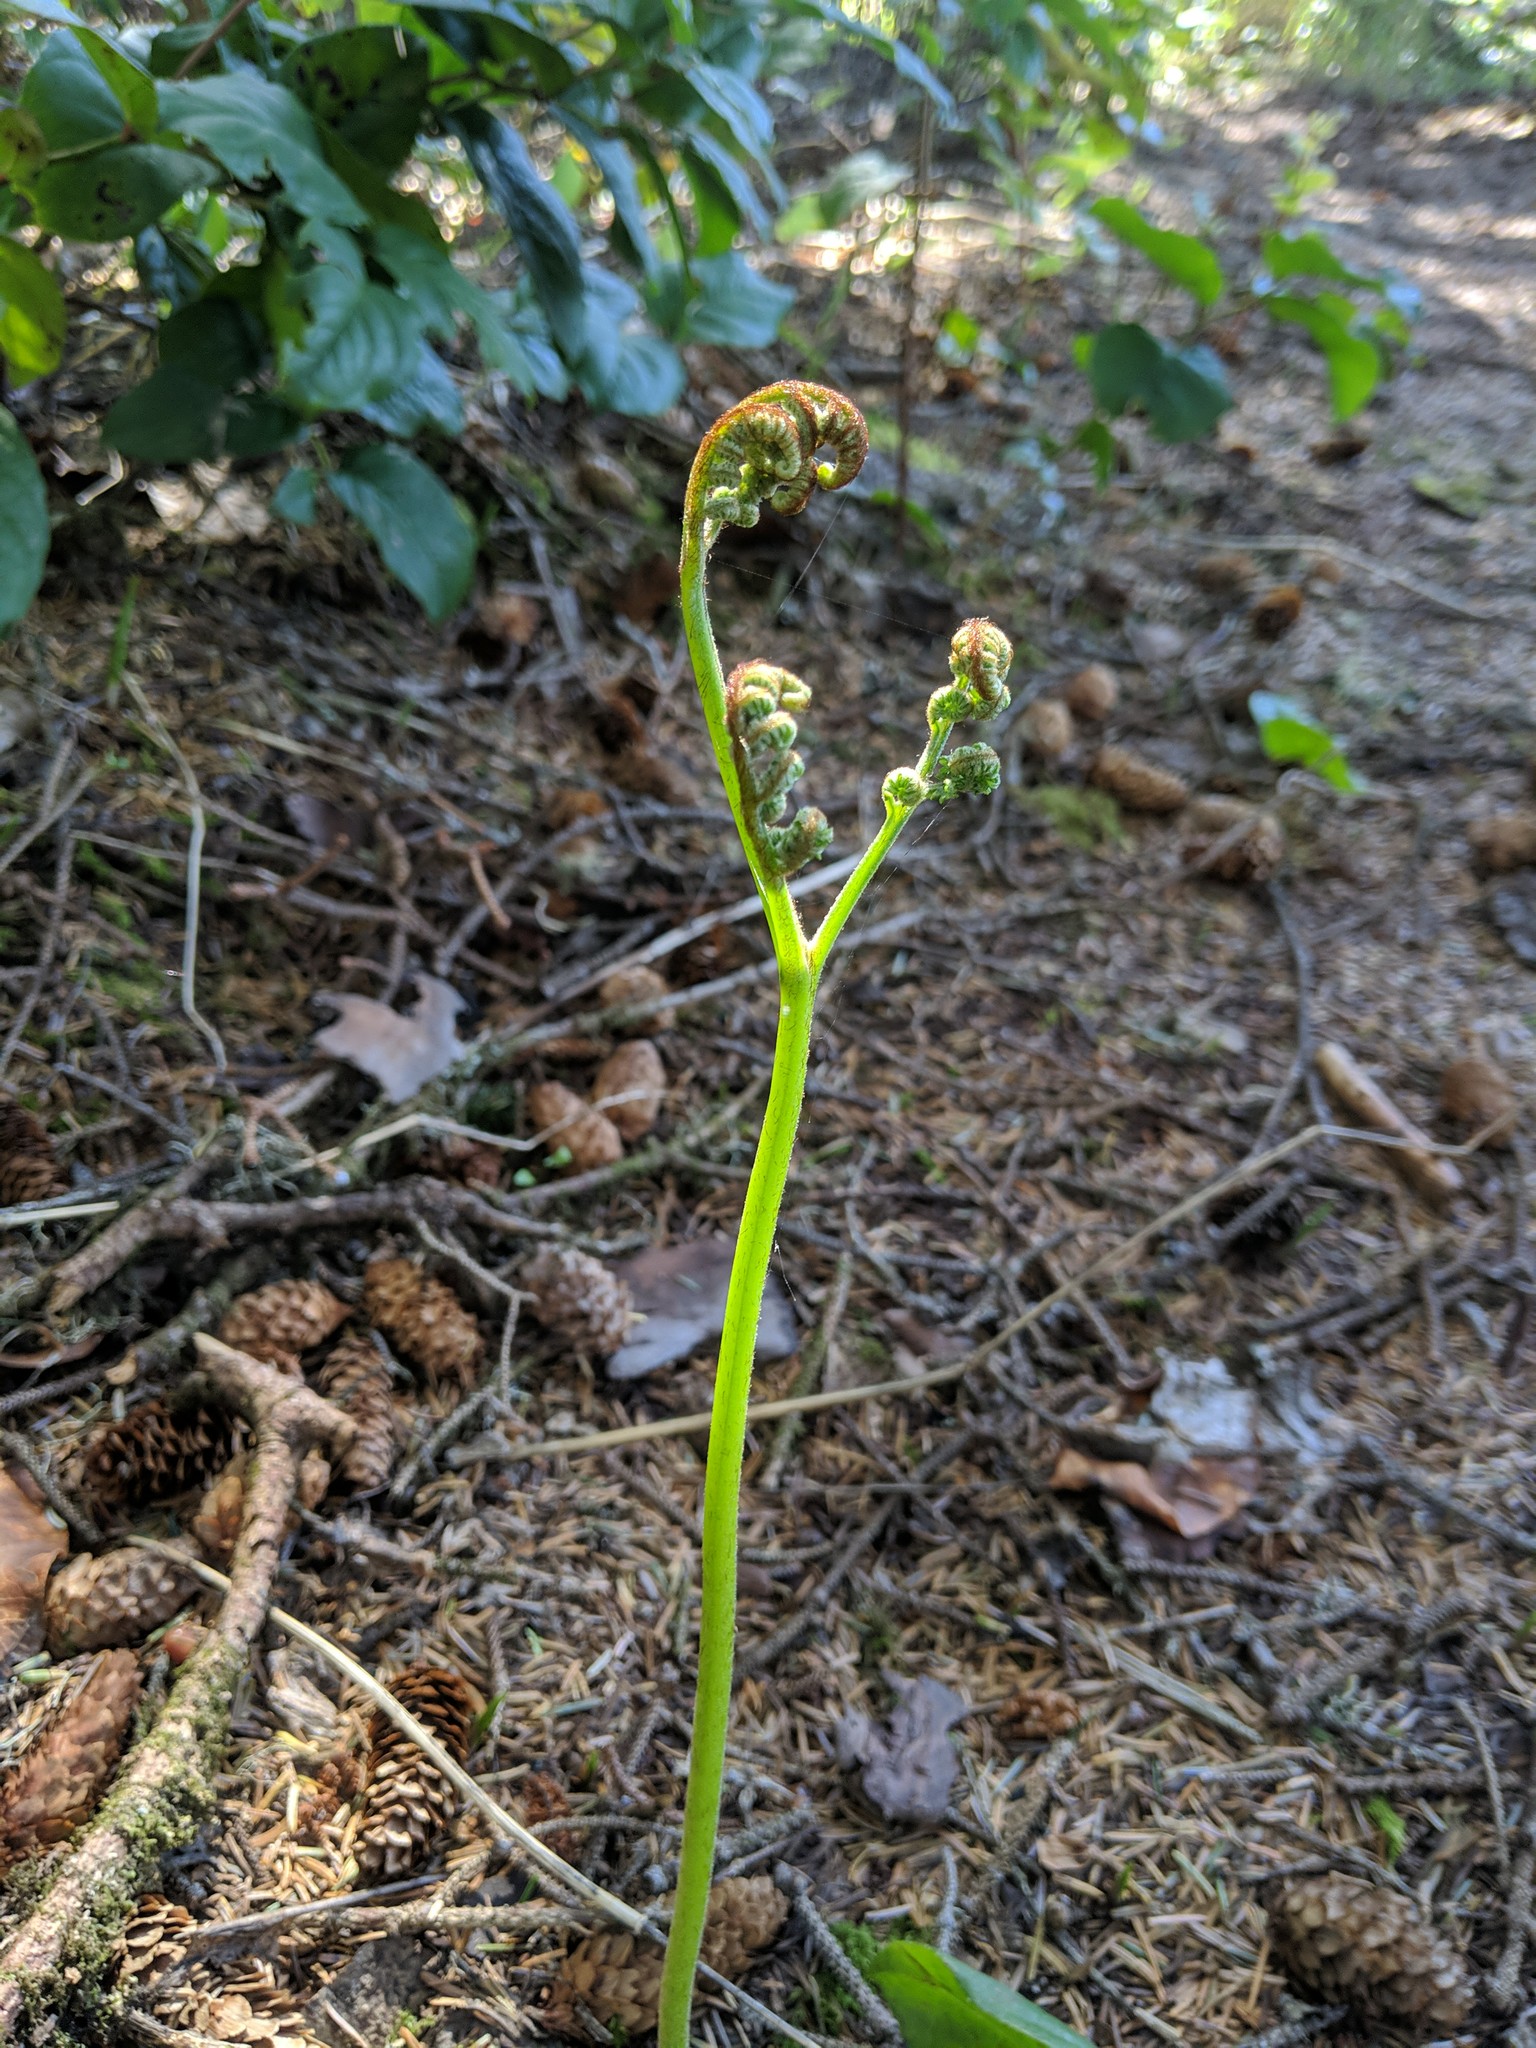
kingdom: Plantae
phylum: Tracheophyta
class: Polypodiopsida
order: Polypodiales
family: Dennstaedtiaceae
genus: Pteridium
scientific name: Pteridium aquilinum
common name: Bracken
